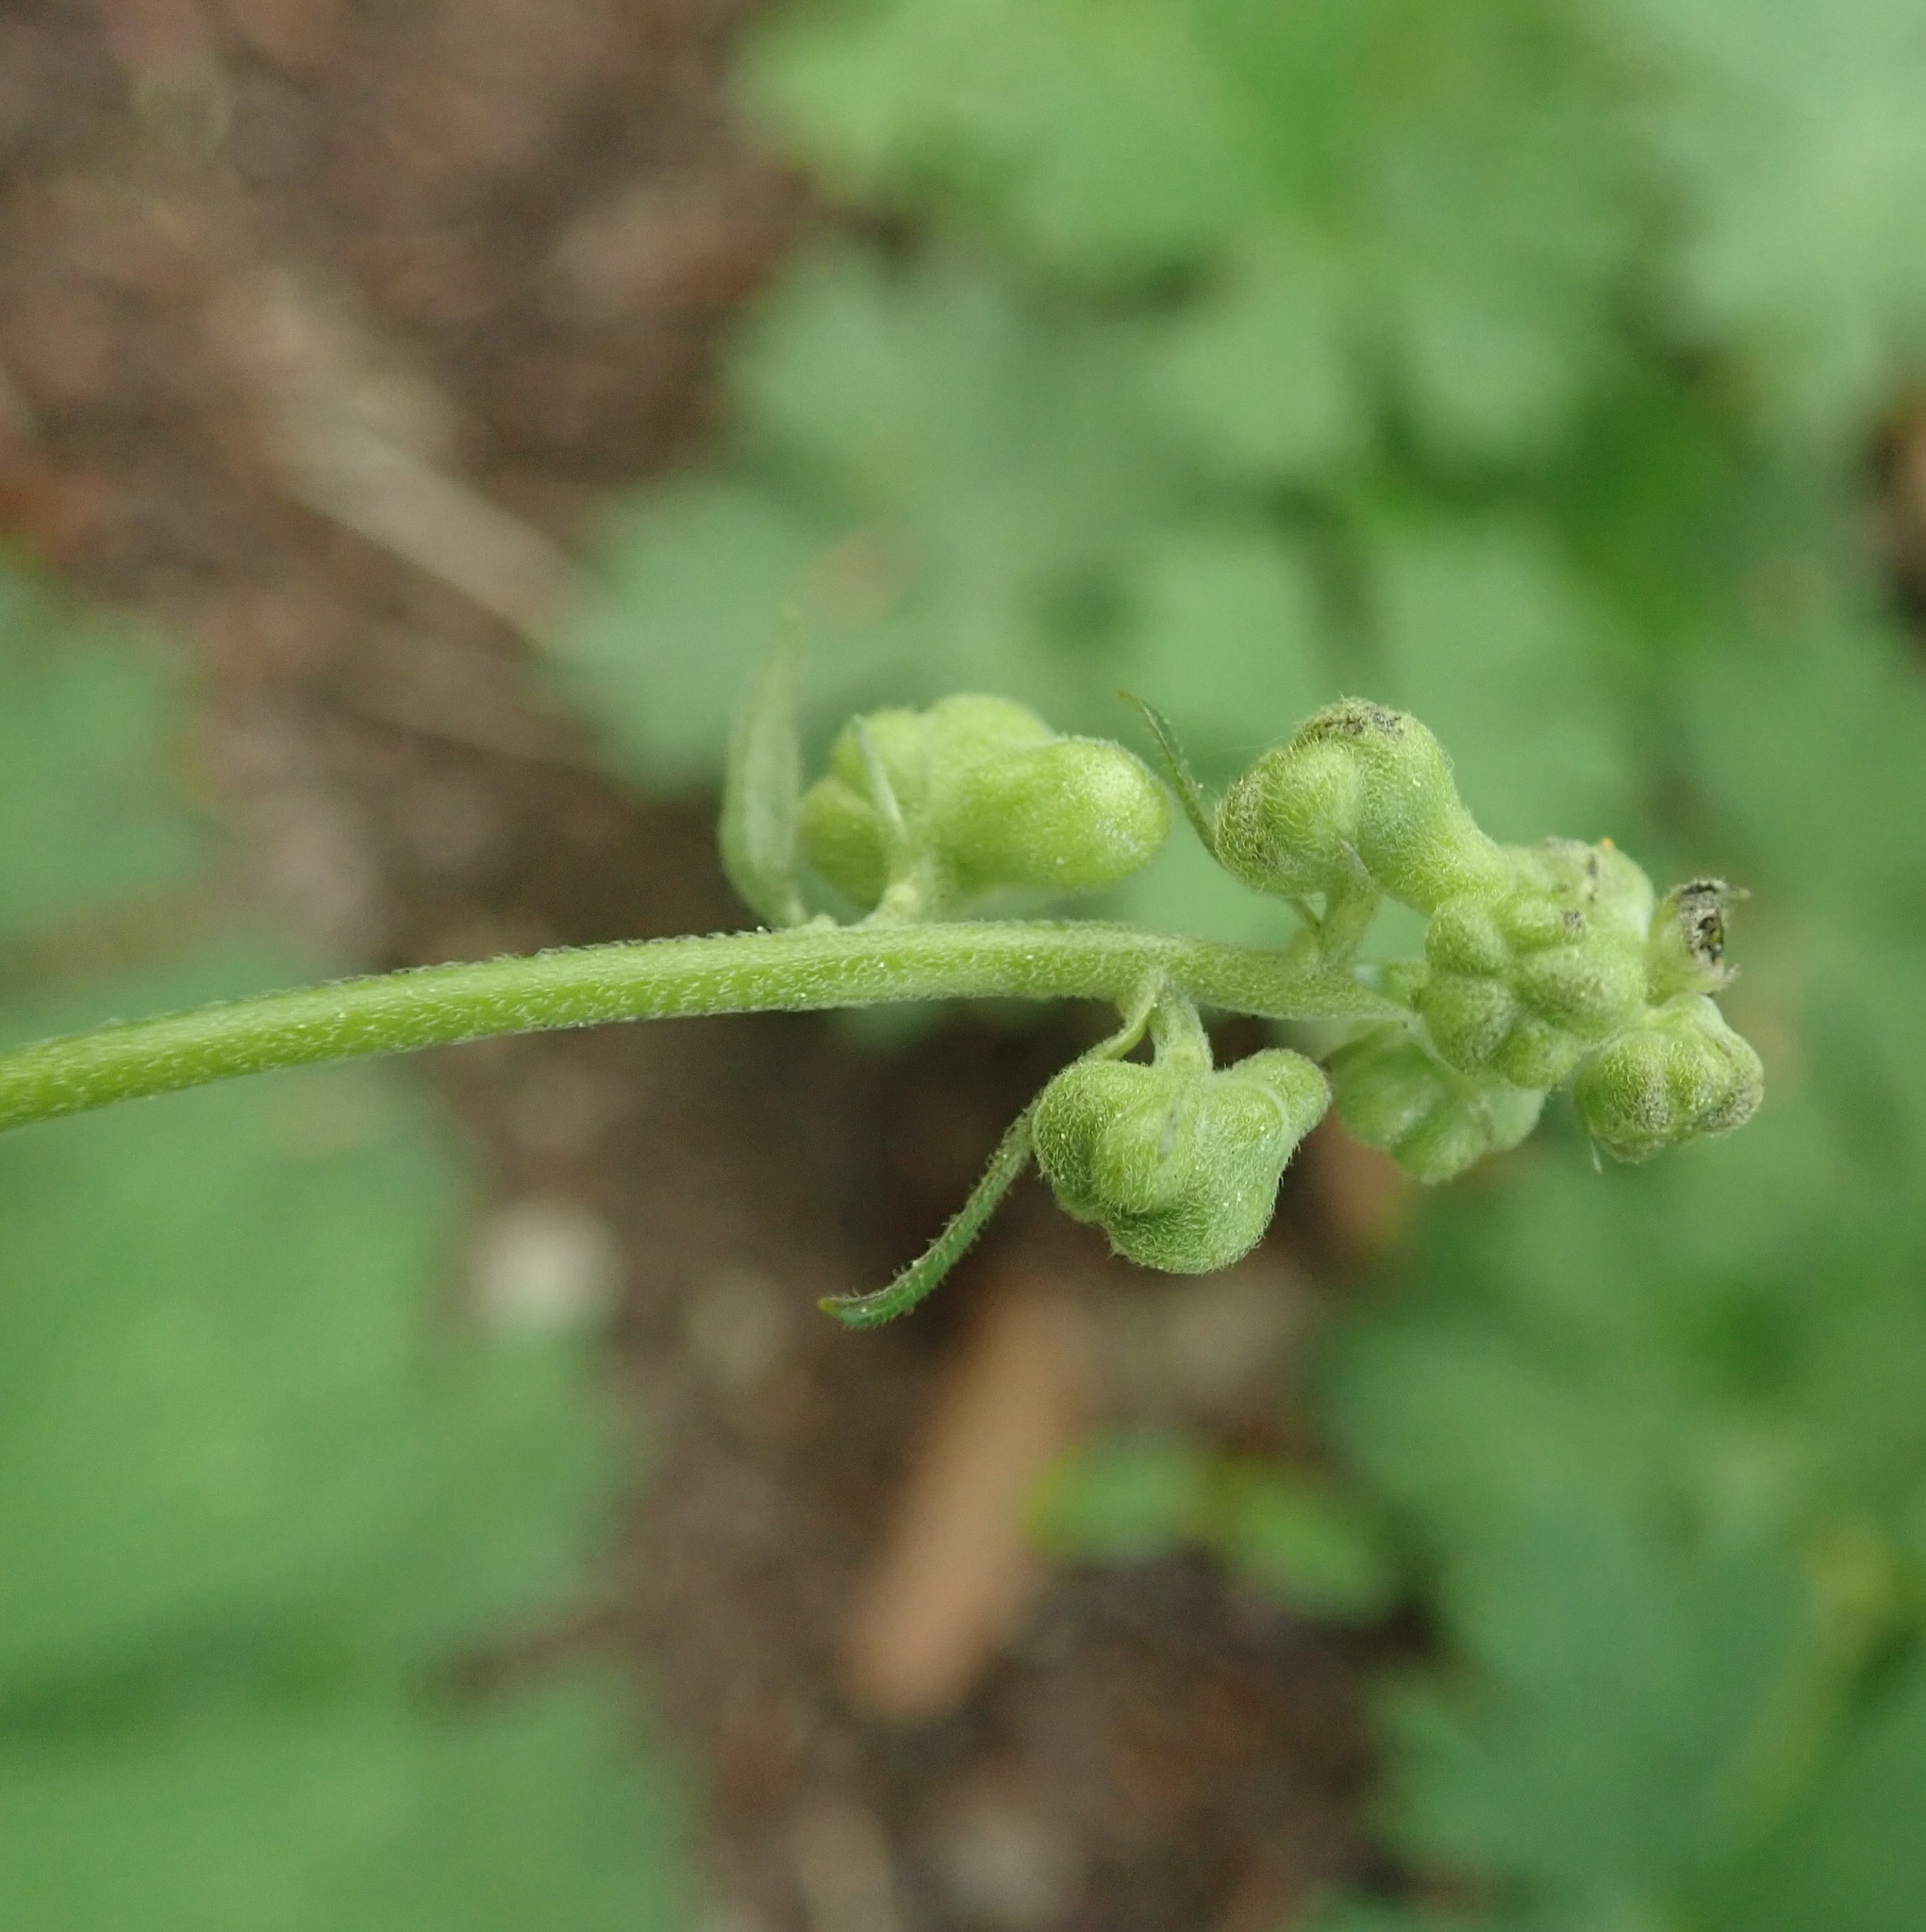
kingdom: Plantae
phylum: Tracheophyta
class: Magnoliopsida
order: Ranunculales
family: Ranunculaceae
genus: Aconitum
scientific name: Aconitum lycoctonum
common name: Wolf's-bane
